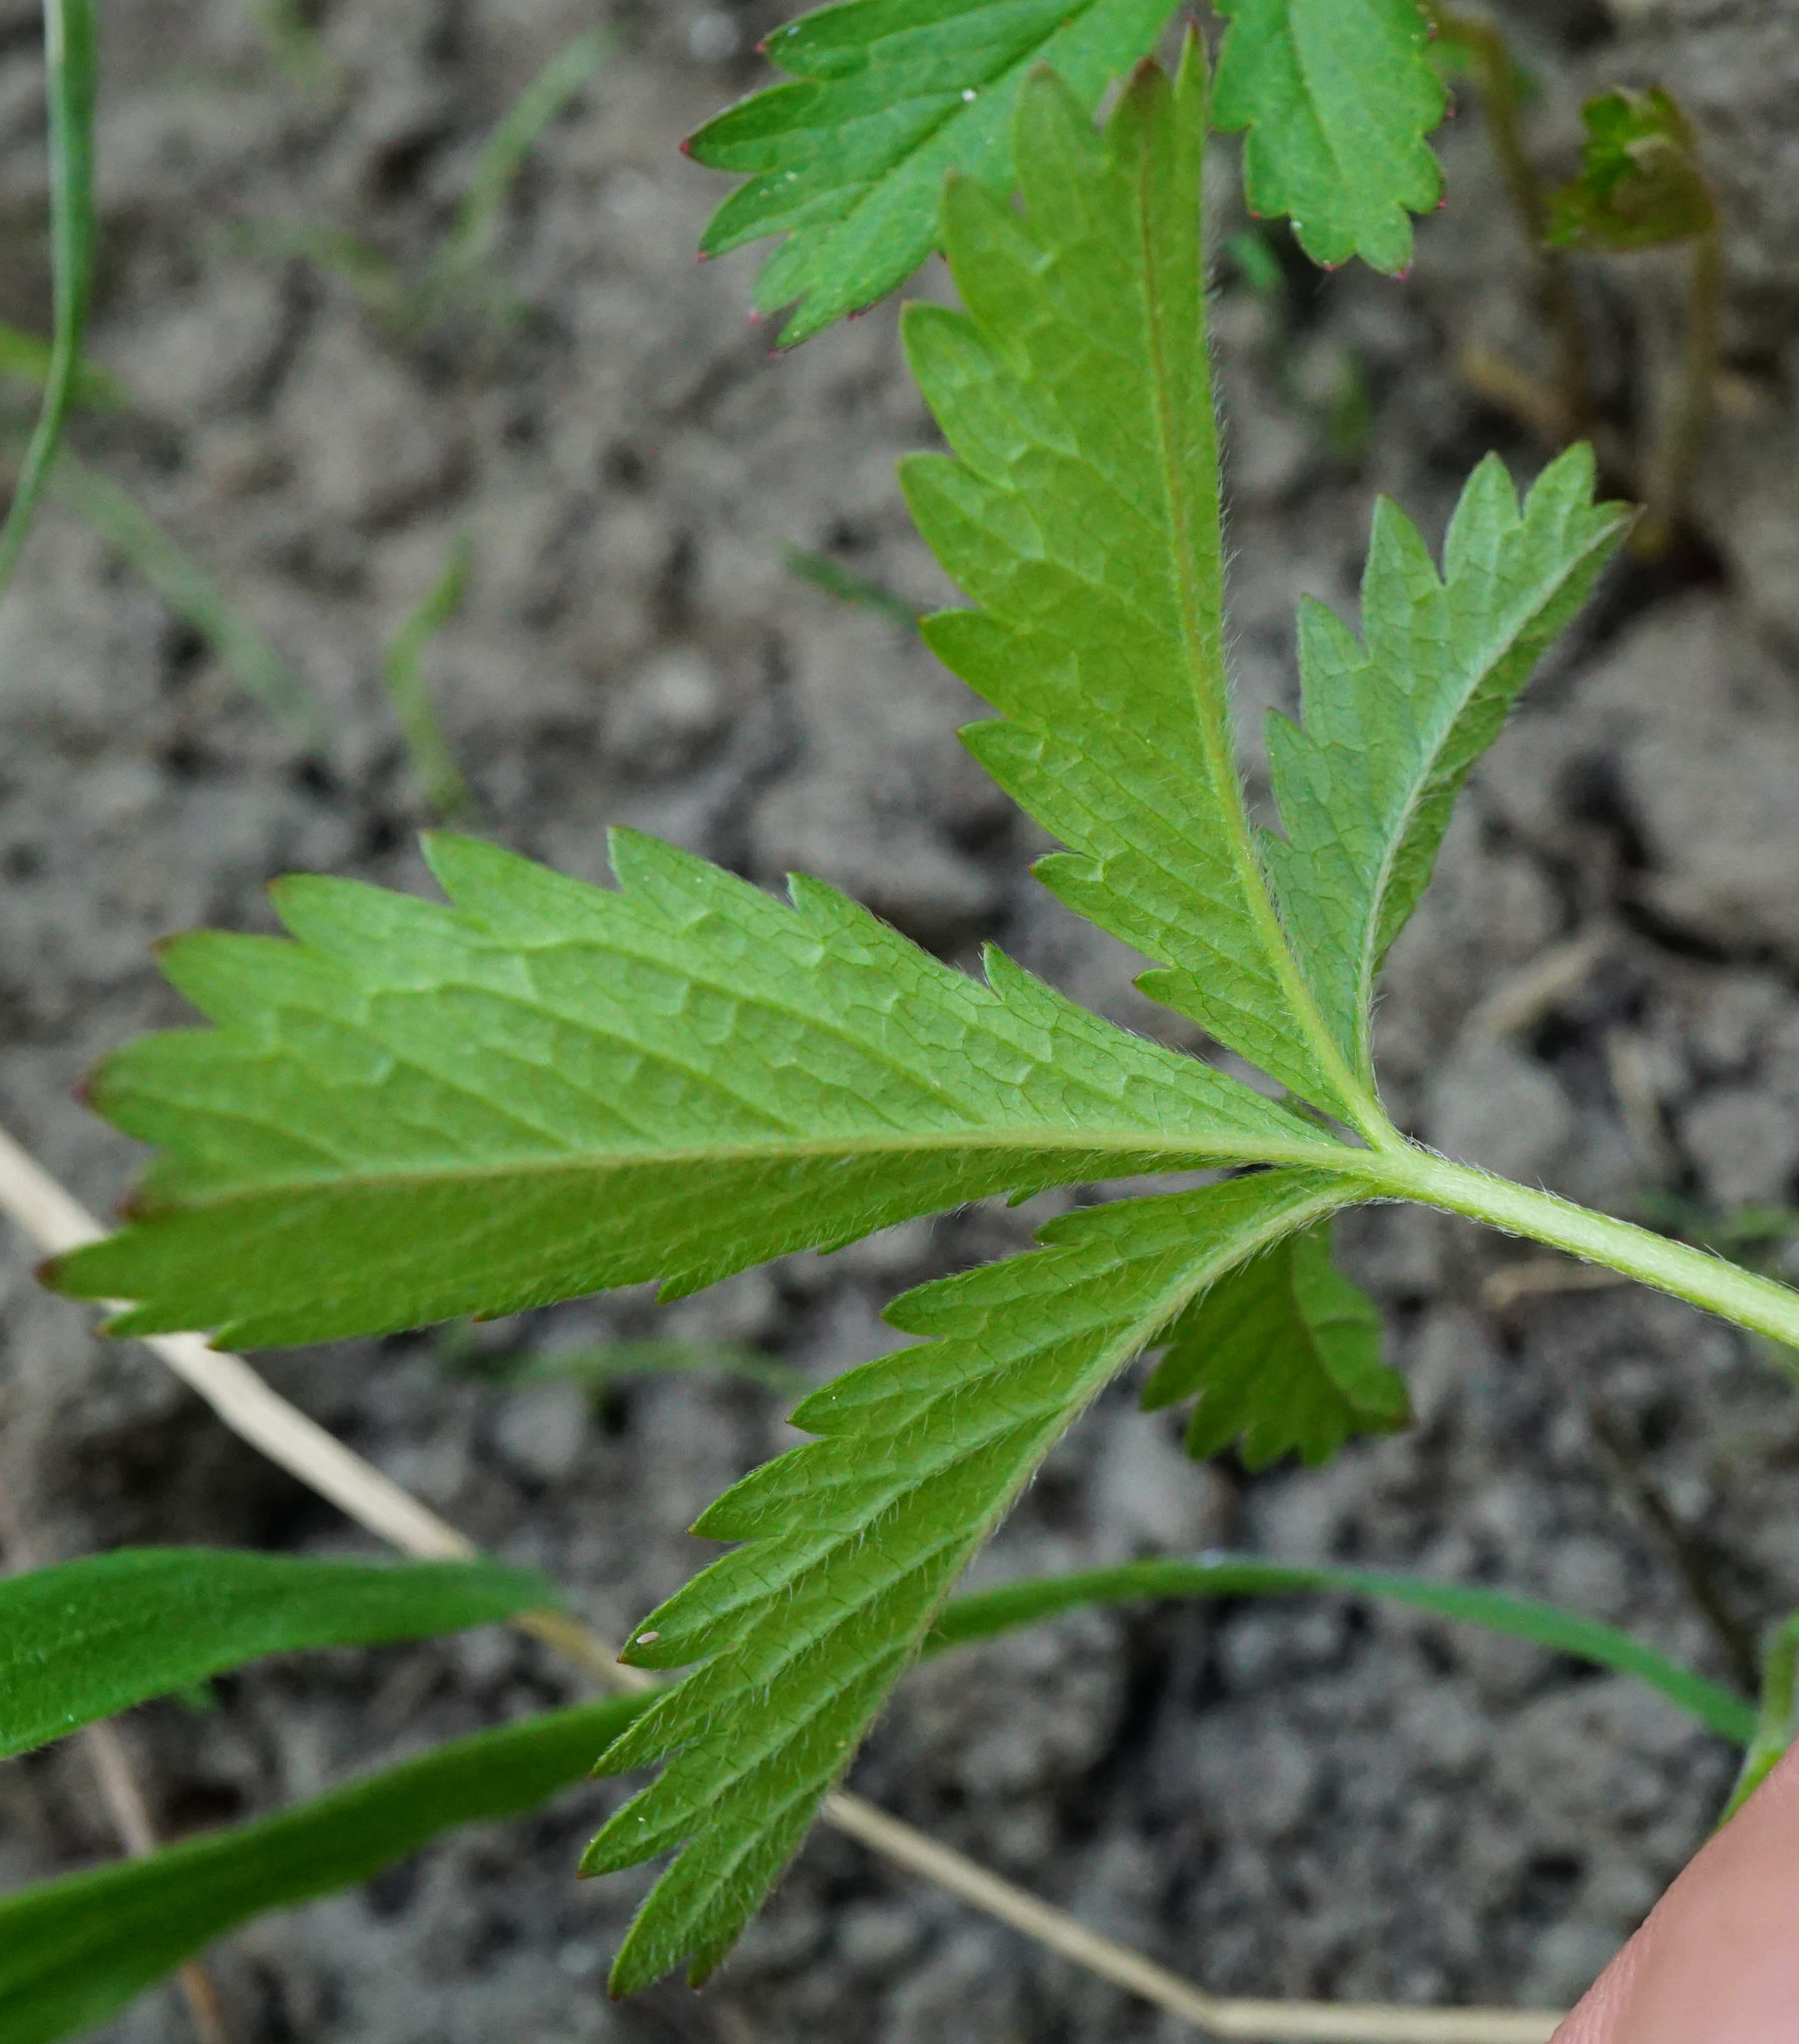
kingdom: Plantae
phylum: Tracheophyta
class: Magnoliopsida
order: Rosales
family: Rosaceae
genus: Potentilla
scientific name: Potentilla reptans
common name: Creeping cinquefoil
